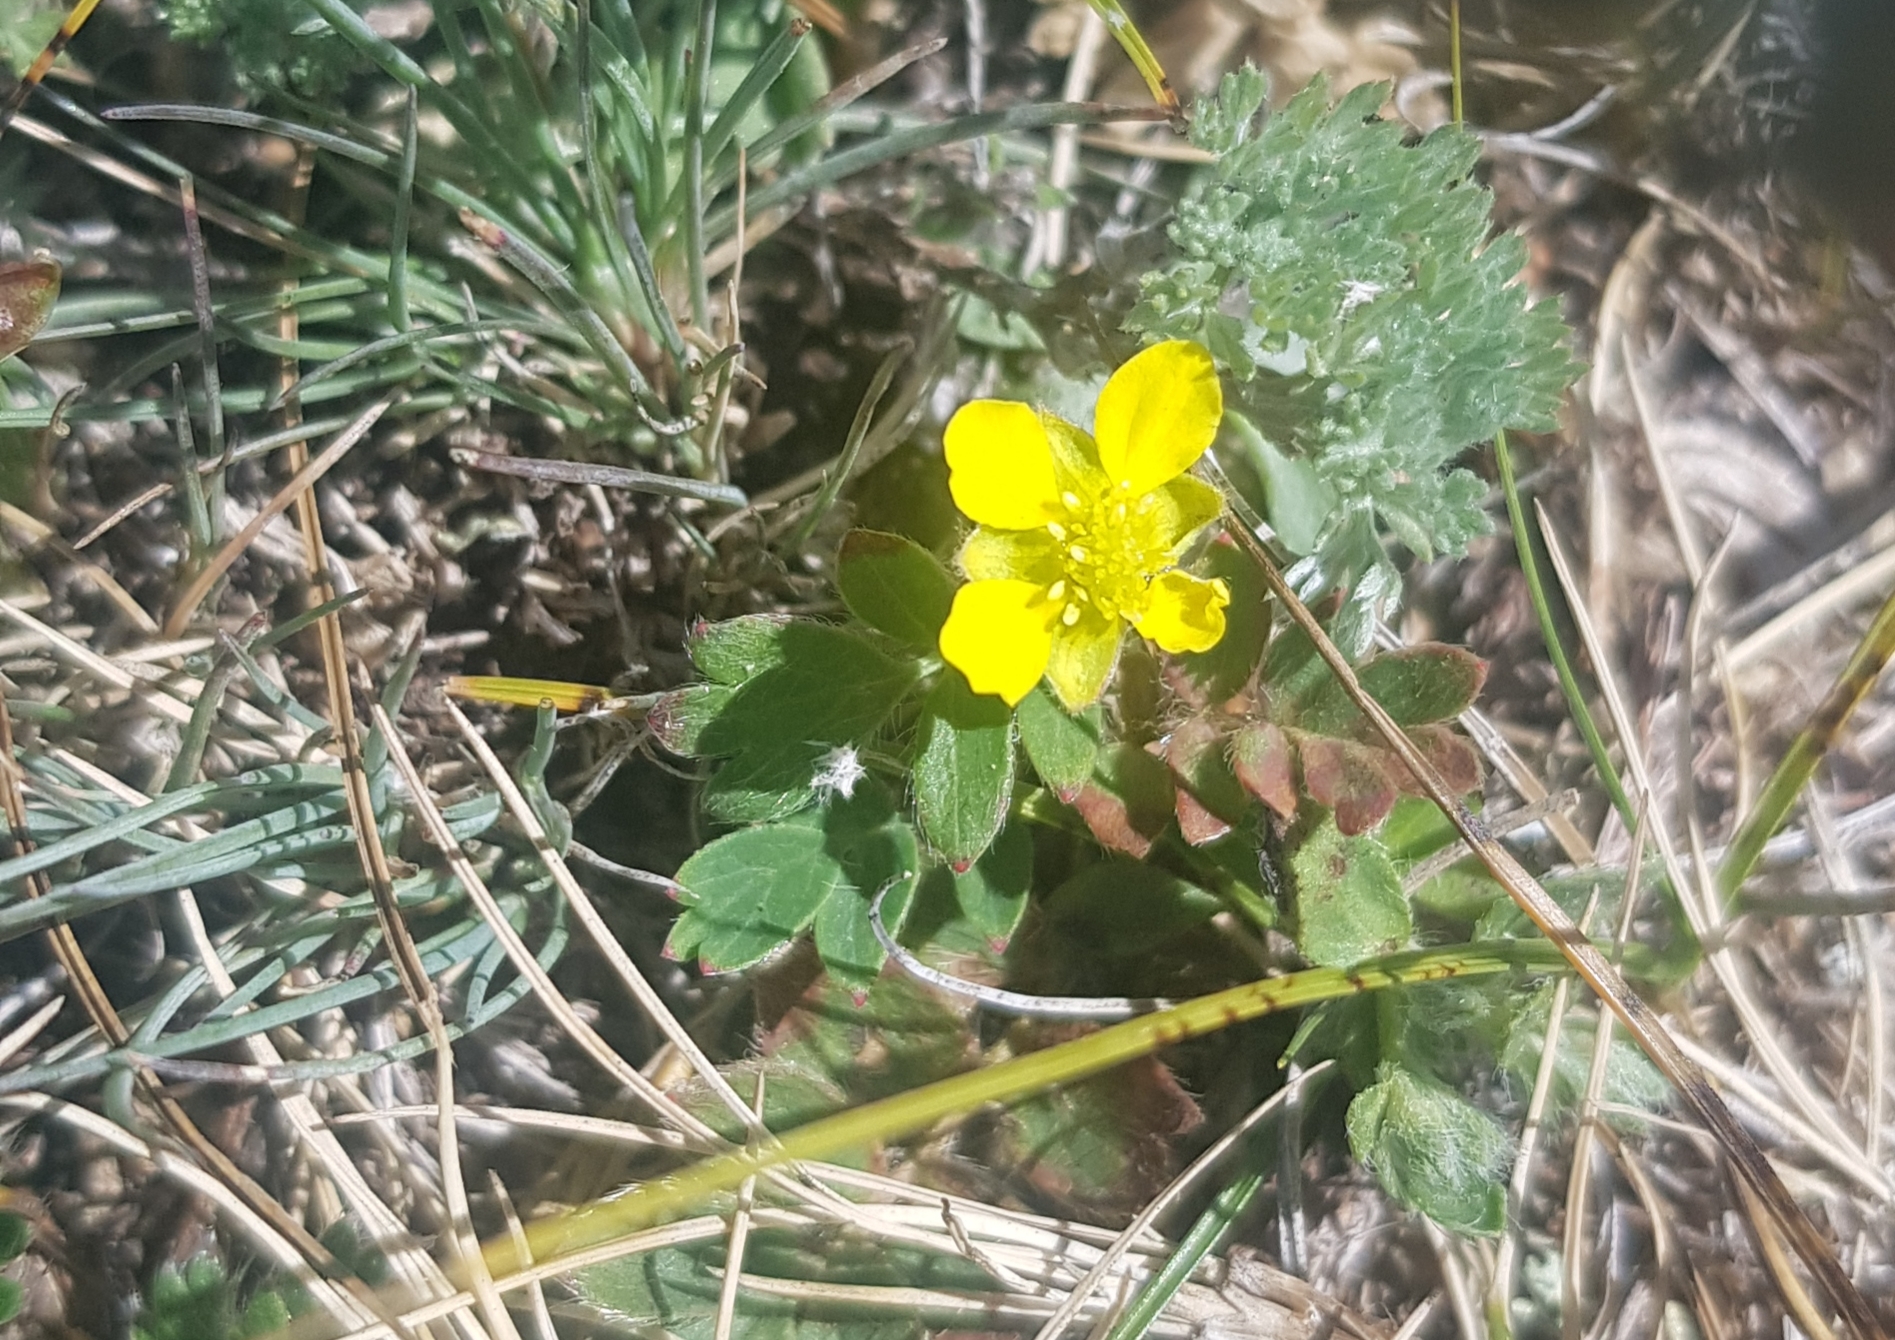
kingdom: Plantae
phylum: Tracheophyta
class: Magnoliopsida
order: Rosales
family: Rosaceae
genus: Sibbaldianthe
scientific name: Sibbaldianthe bifurca
